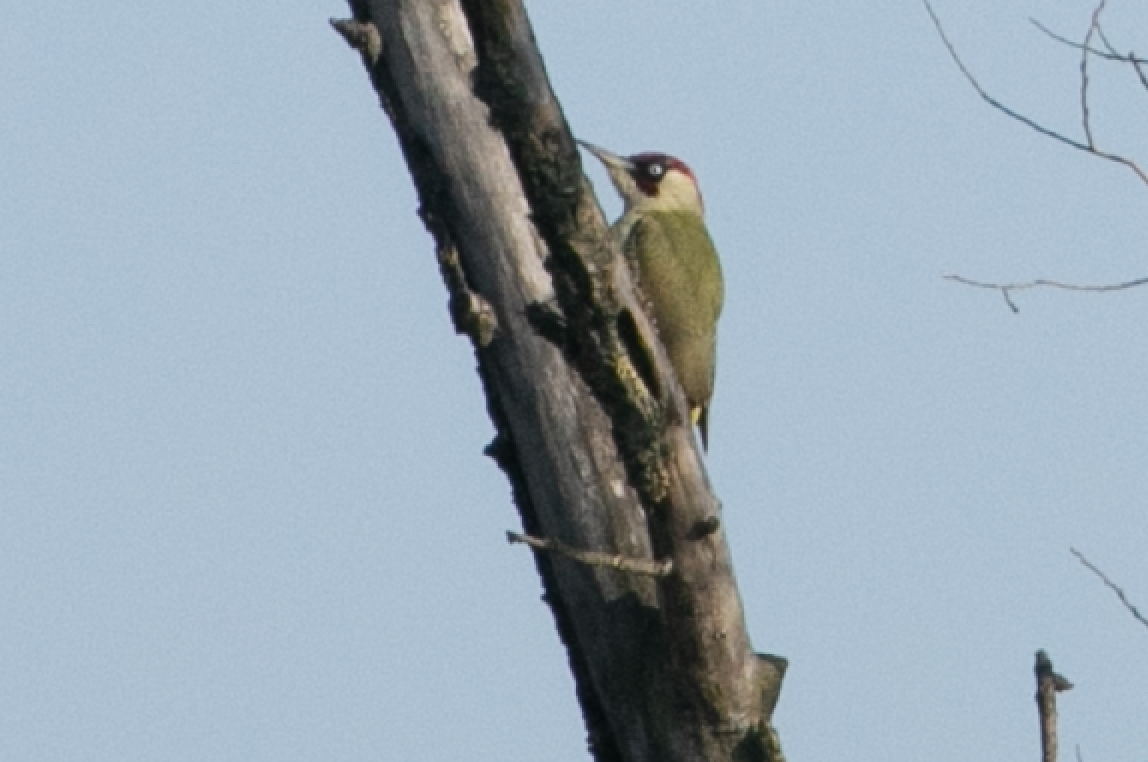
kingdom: Animalia
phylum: Chordata
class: Aves
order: Piciformes
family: Picidae
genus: Picus
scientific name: Picus viridis
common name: European green woodpecker
